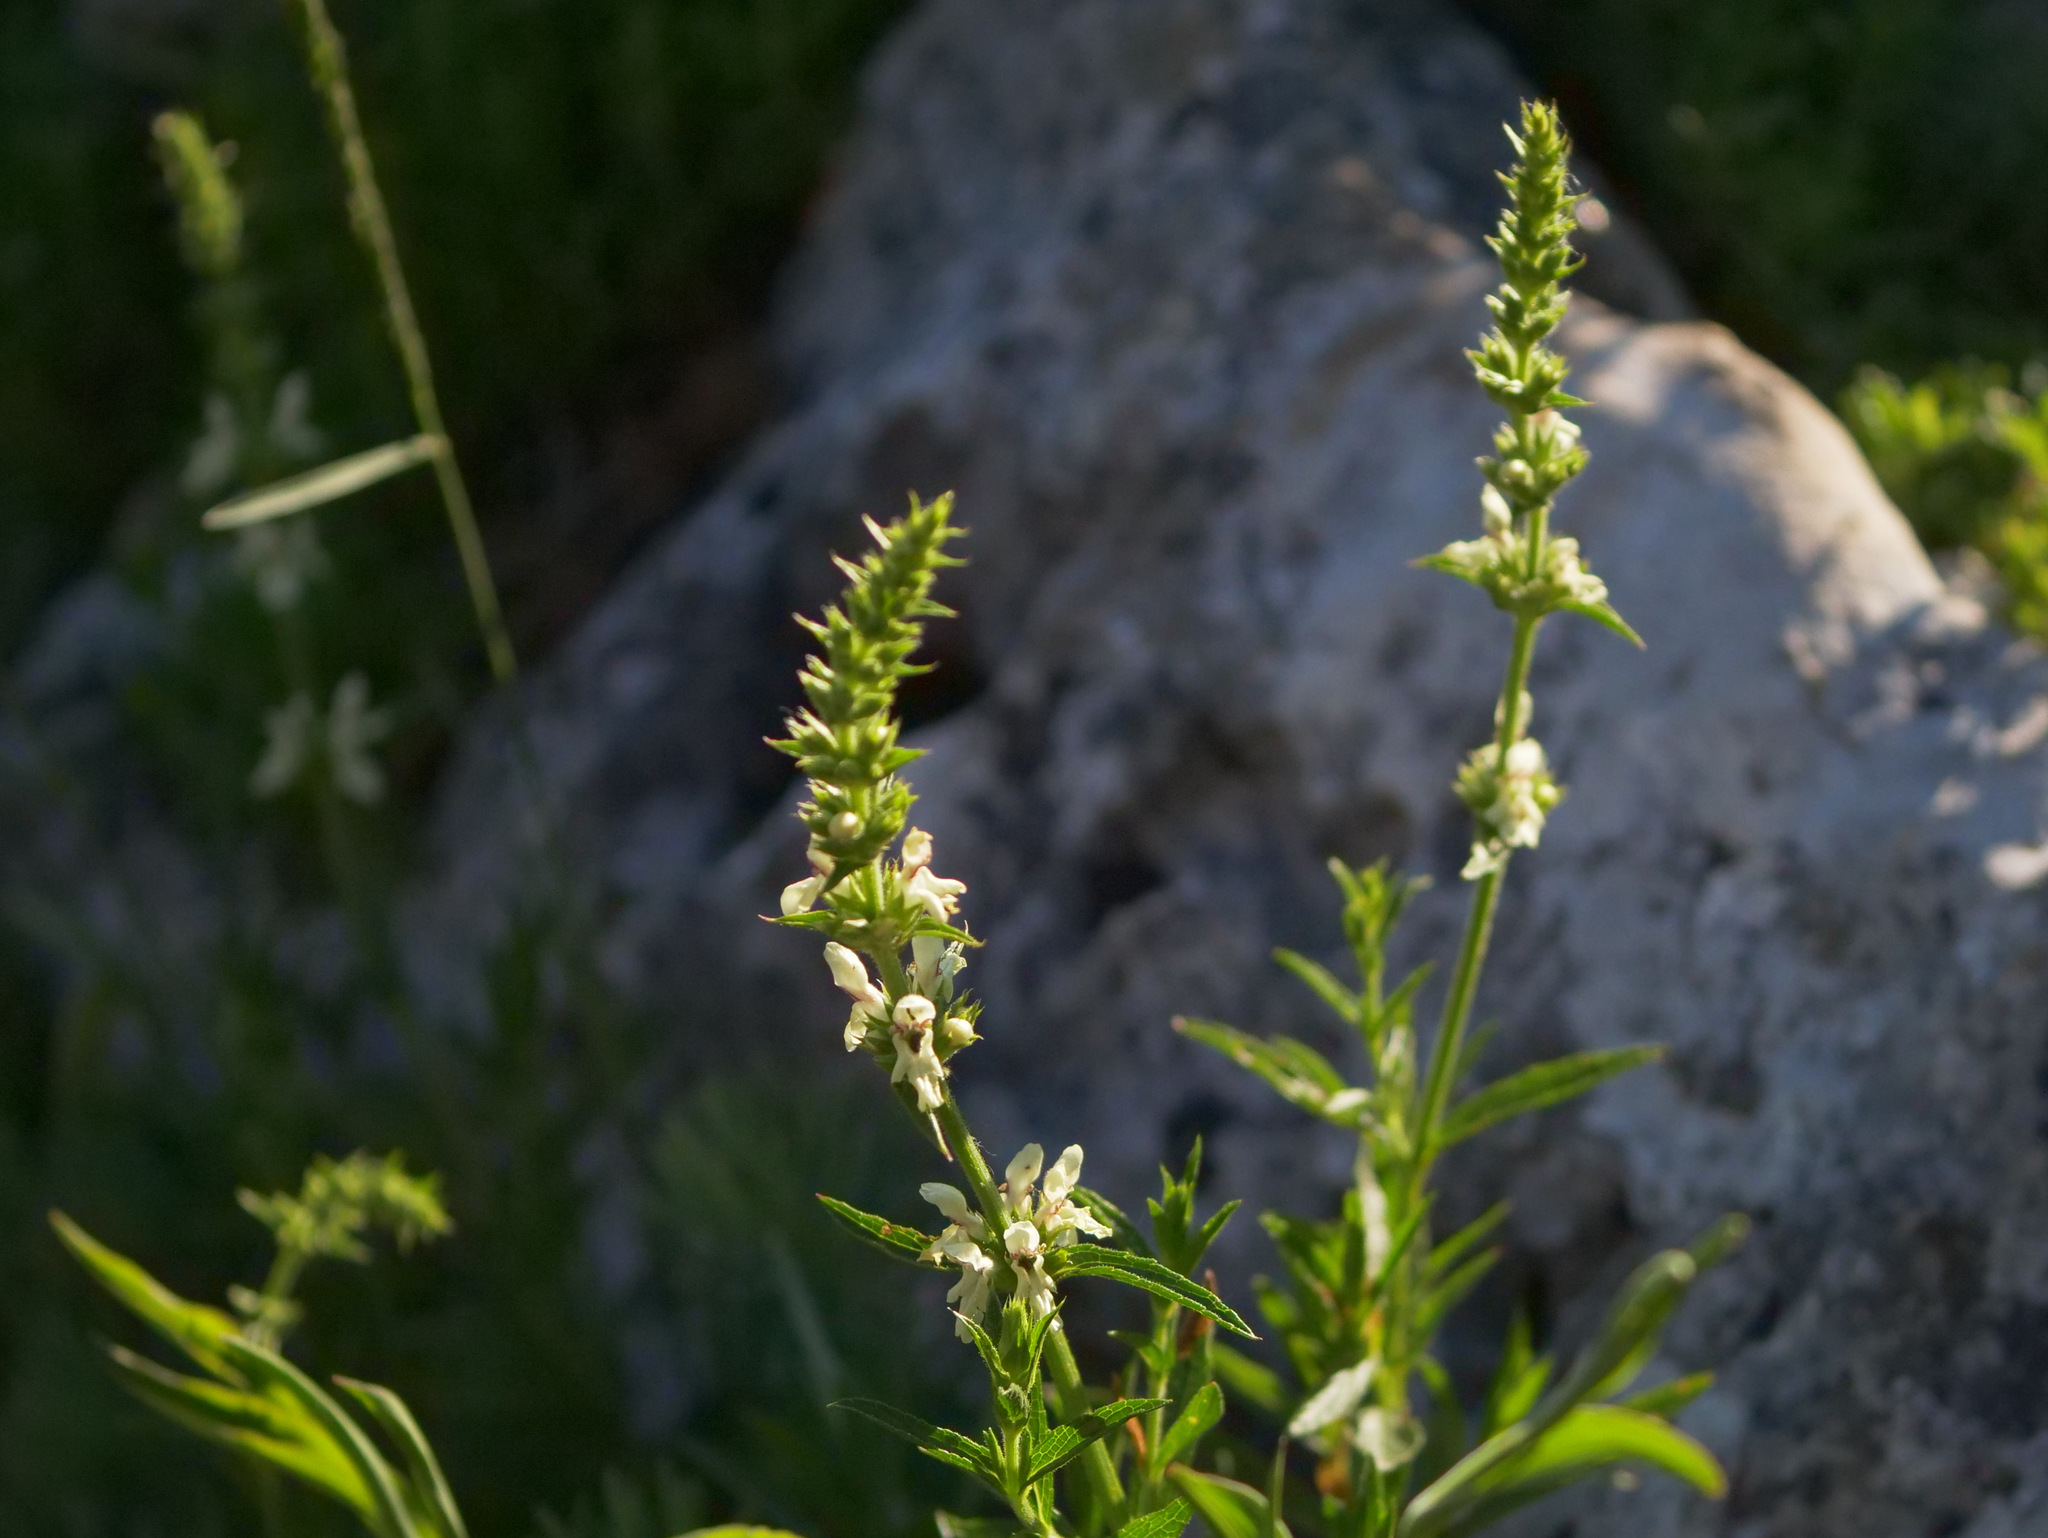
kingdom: Plantae
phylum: Tracheophyta
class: Magnoliopsida
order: Lamiales
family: Lamiaceae
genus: Stachys
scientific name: Stachys recta
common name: Perennial yellow-woundwort
